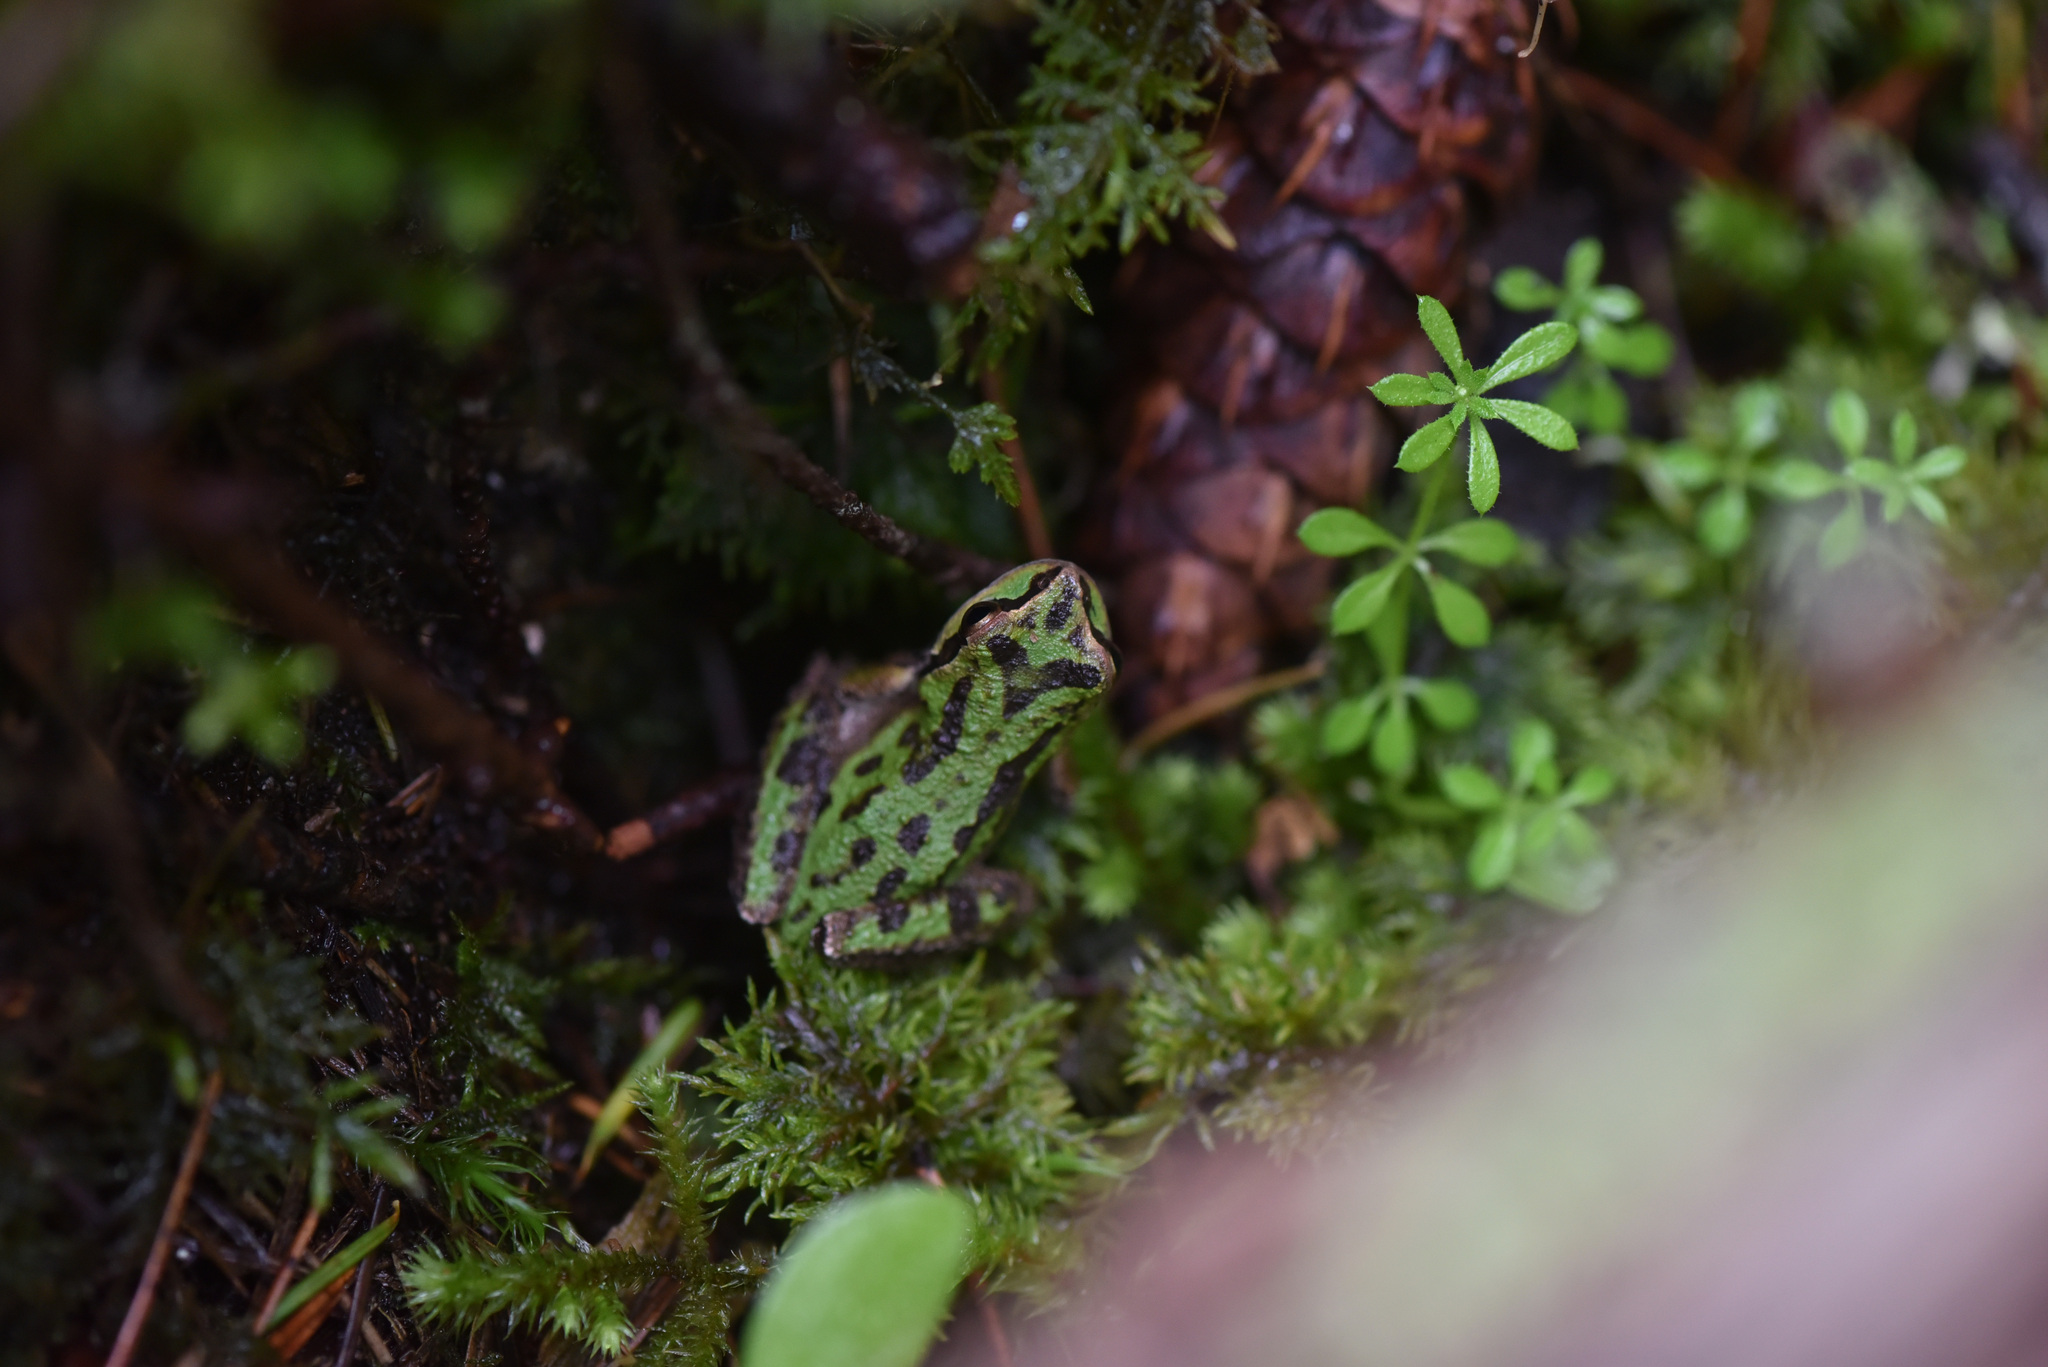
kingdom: Animalia
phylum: Chordata
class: Amphibia
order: Anura
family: Hylidae
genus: Pseudacris
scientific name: Pseudacris regilla
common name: Pacific chorus frog
